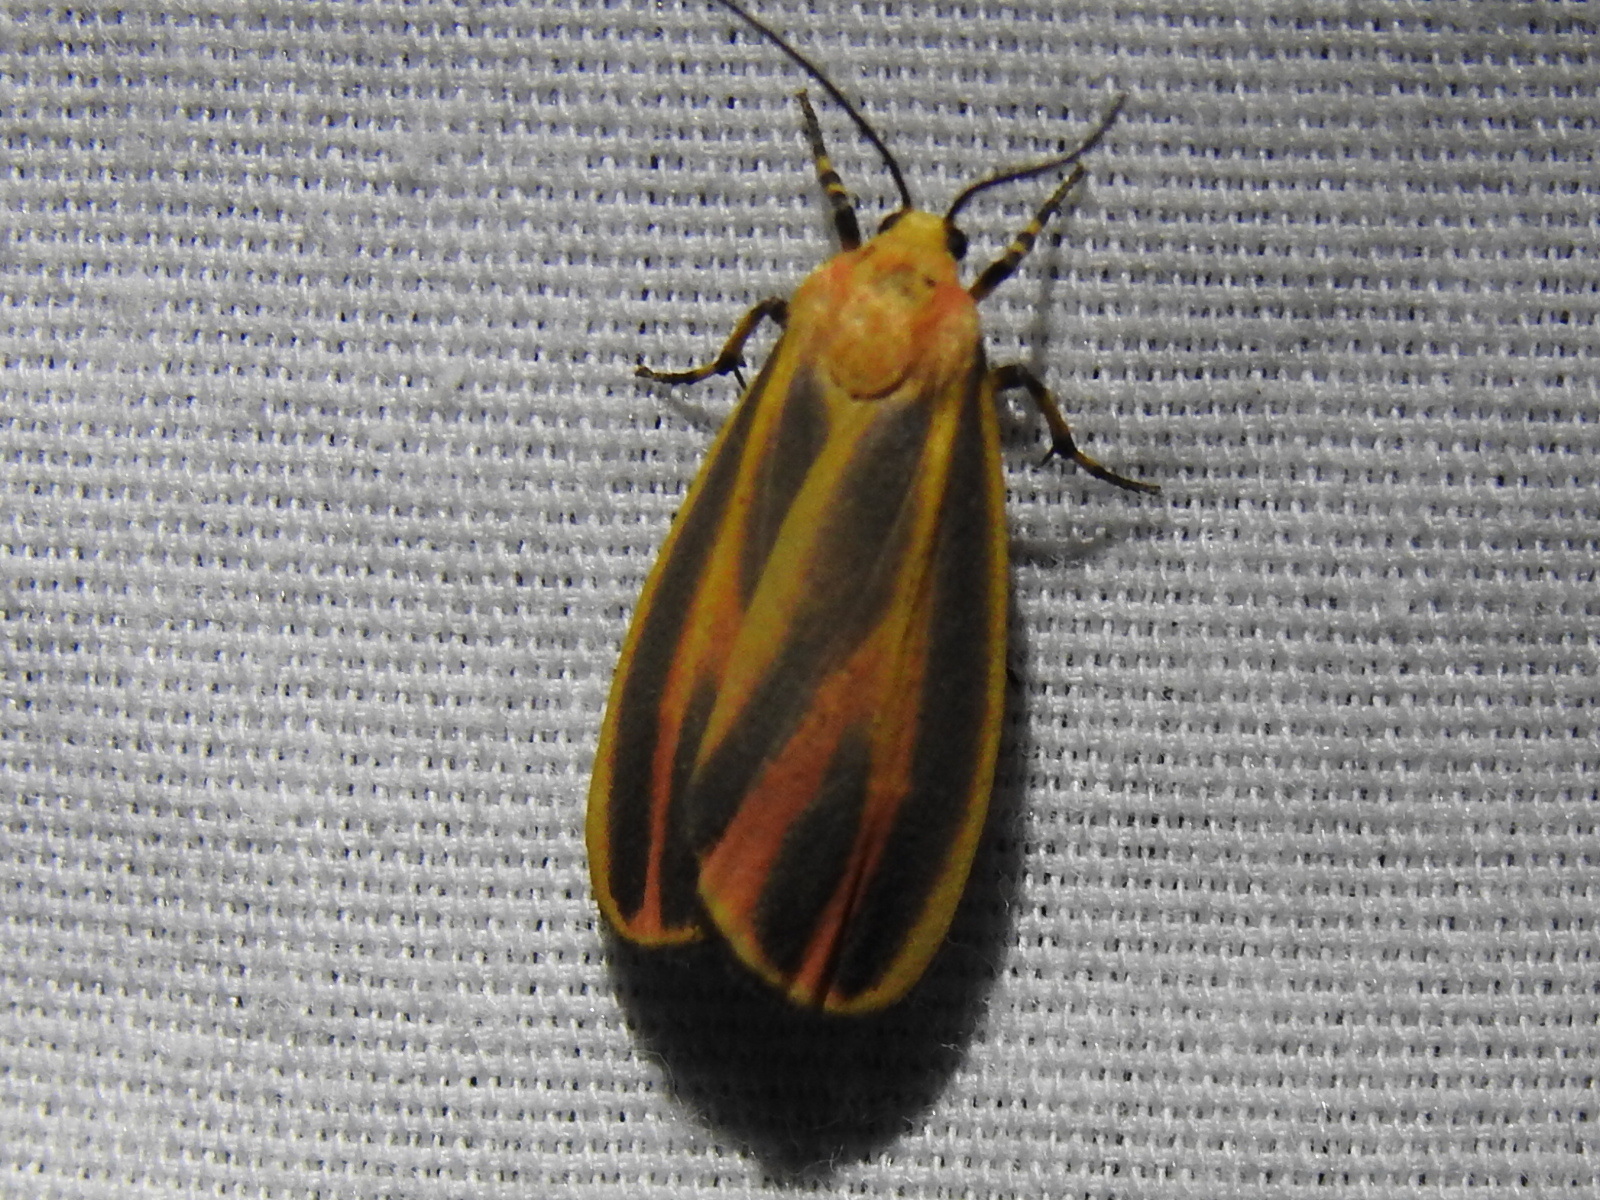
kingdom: Animalia
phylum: Arthropoda
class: Insecta
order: Lepidoptera
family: Erebidae
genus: Hypoprepia
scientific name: Hypoprepia fucosa
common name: Painted lichen moth
